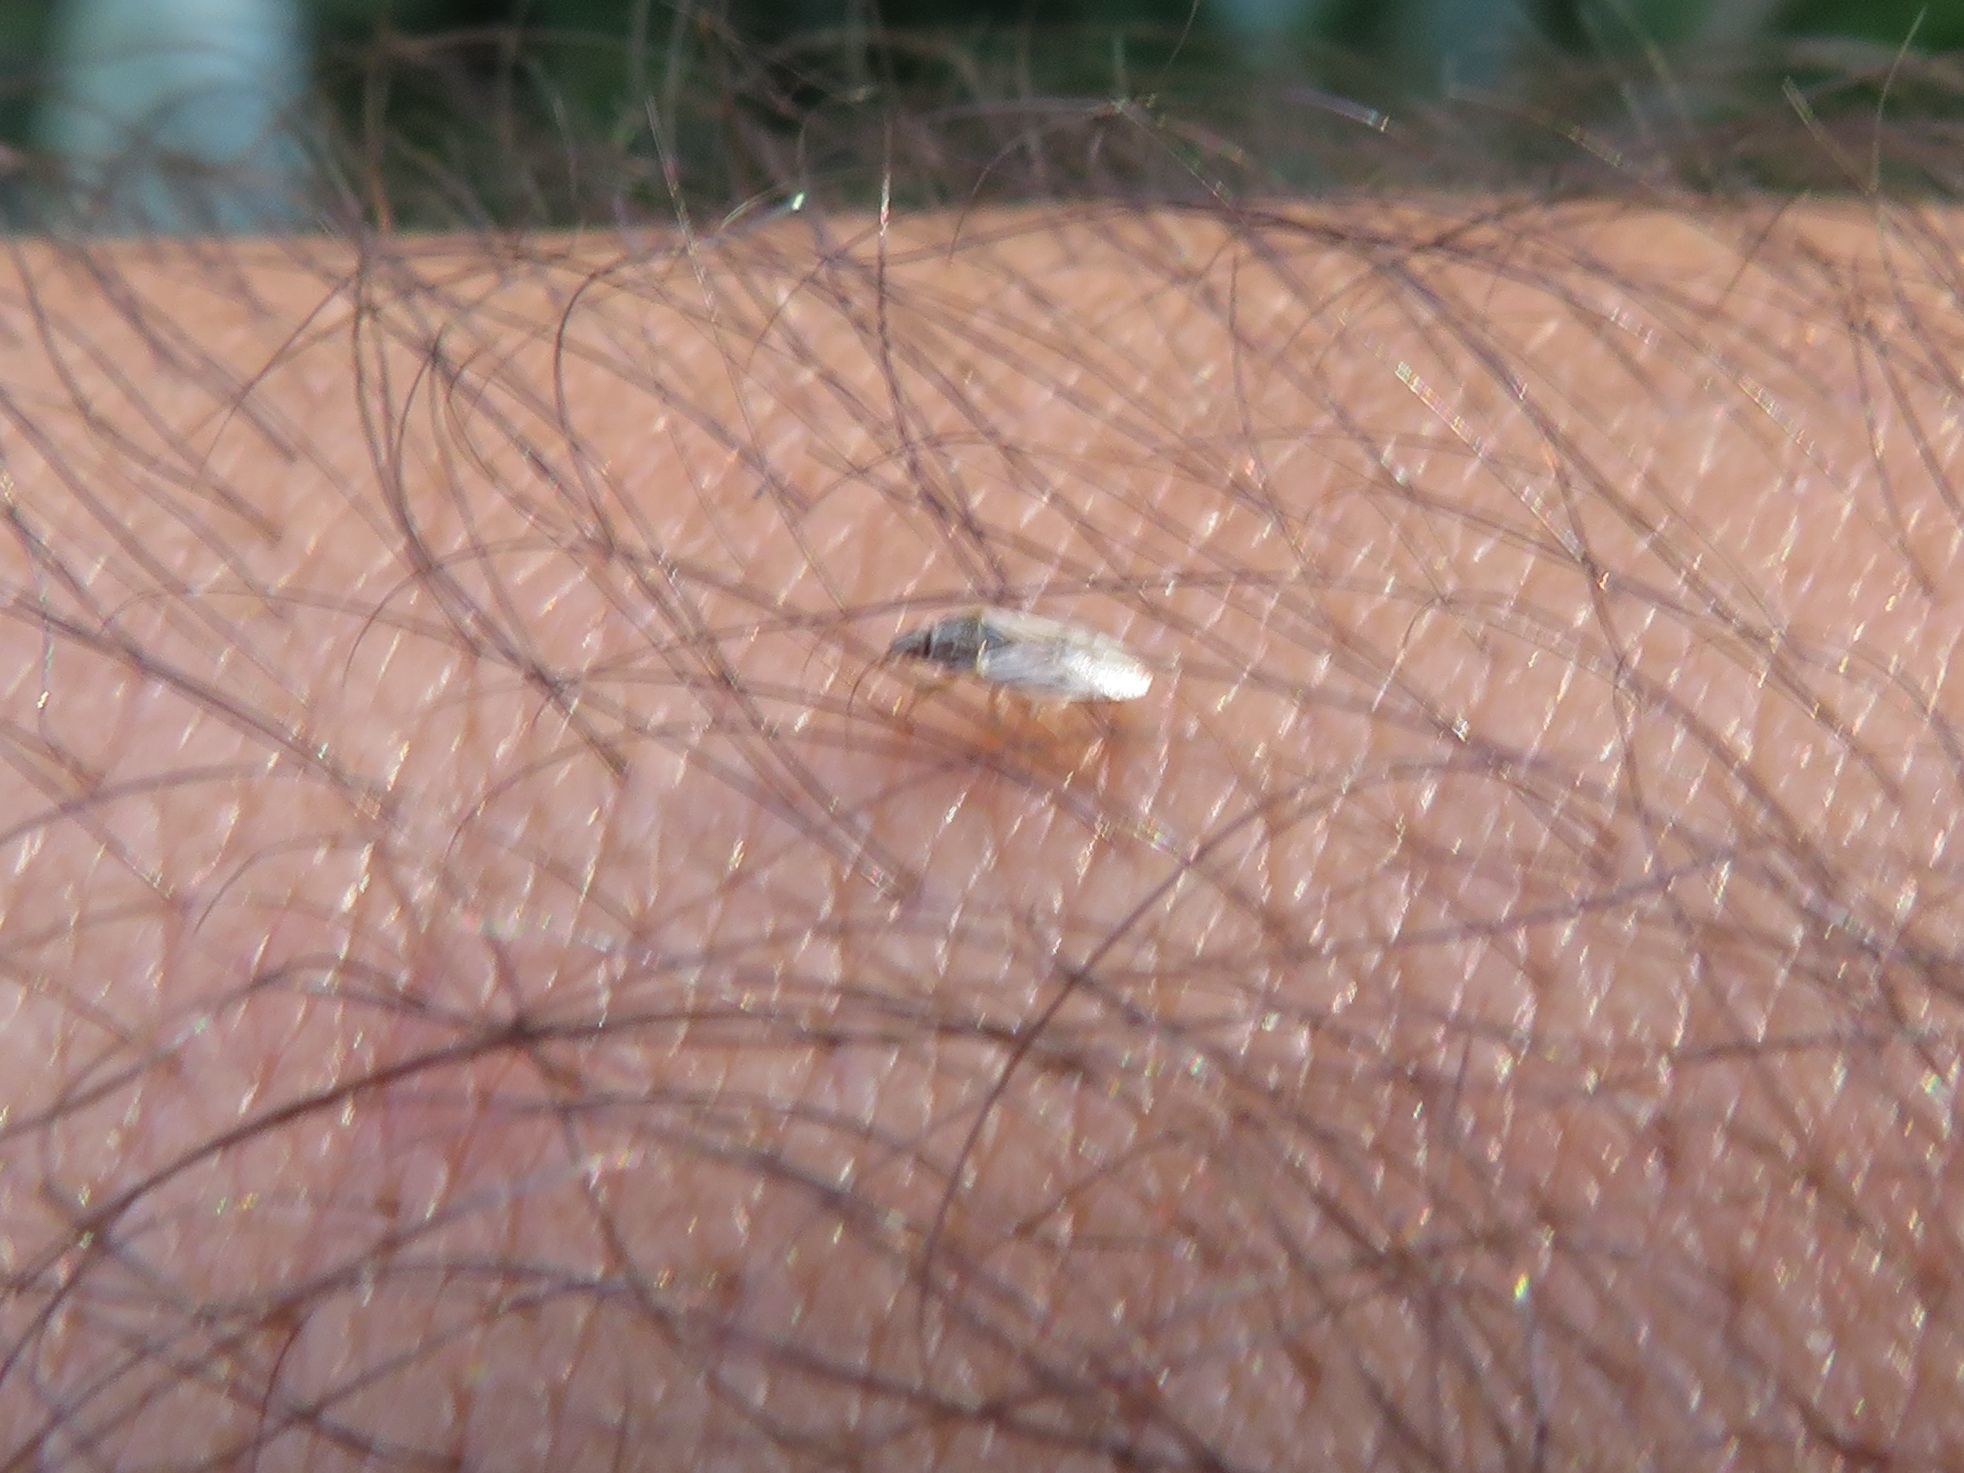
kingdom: Animalia
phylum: Arthropoda
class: Insecta
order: Hemiptera
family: Artheneidae
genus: Holcocranum
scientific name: Holcocranum saturejae
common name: Cattail bug
